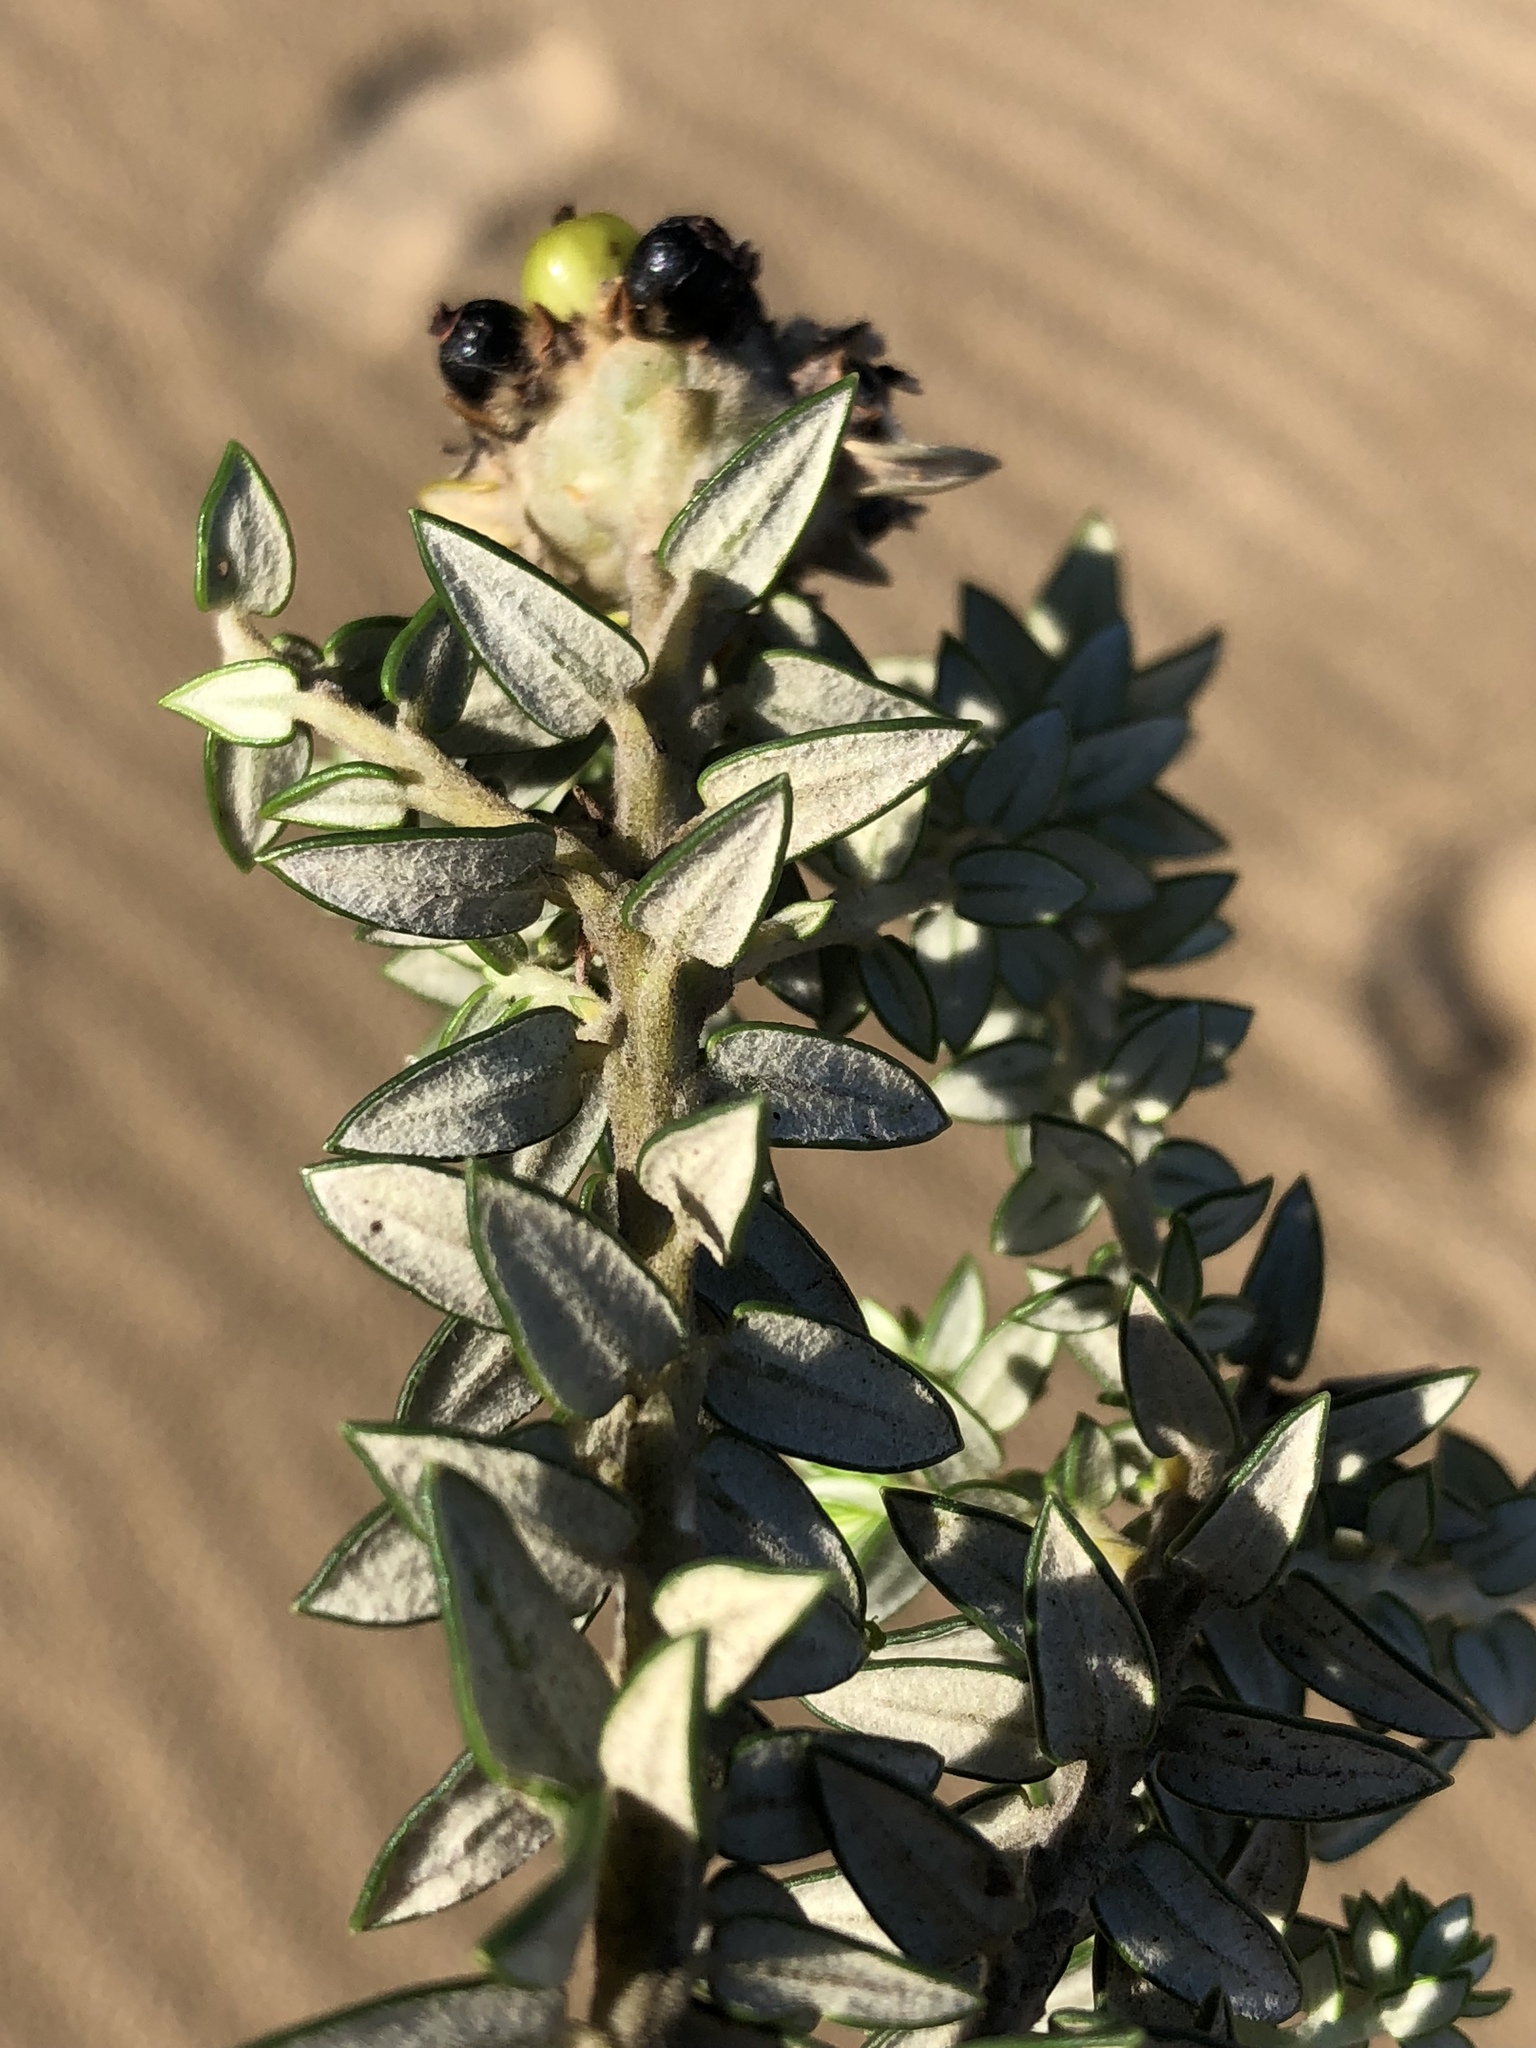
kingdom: Plantae
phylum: Tracheophyta
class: Magnoliopsida
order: Rosales
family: Rhamnaceae
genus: Phylica
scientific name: Phylica litoralis
